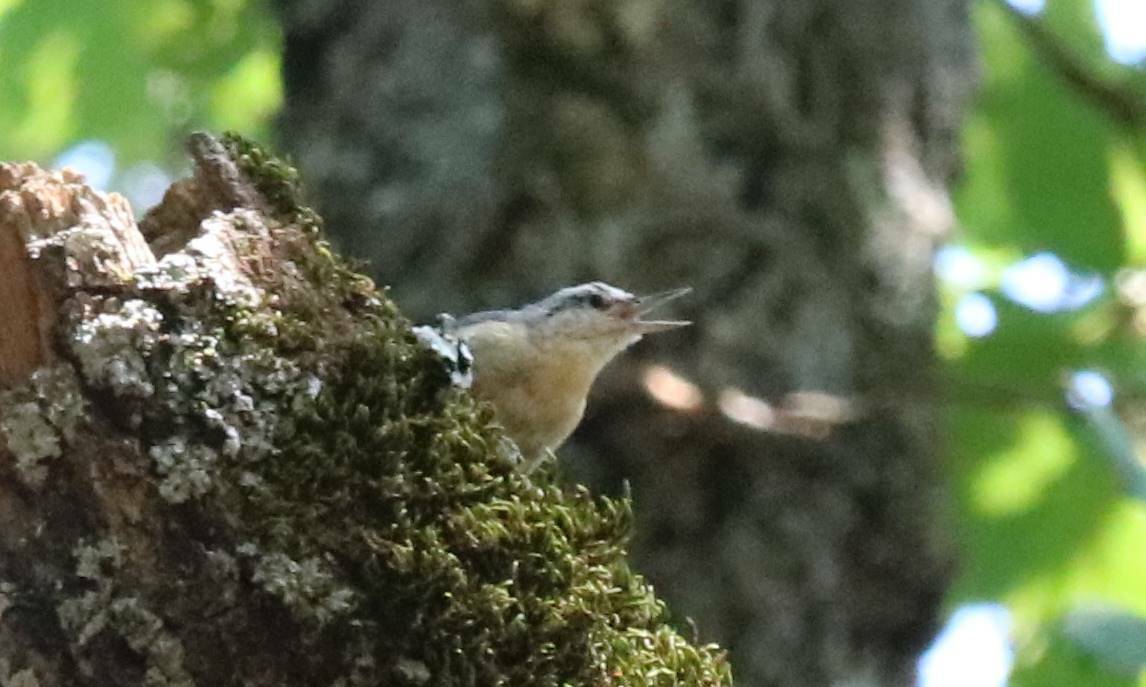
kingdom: Animalia
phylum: Chordata
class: Aves
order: Passeriformes
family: Sittidae
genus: Sitta
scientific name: Sitta ledanti
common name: Algerian nuthatch
